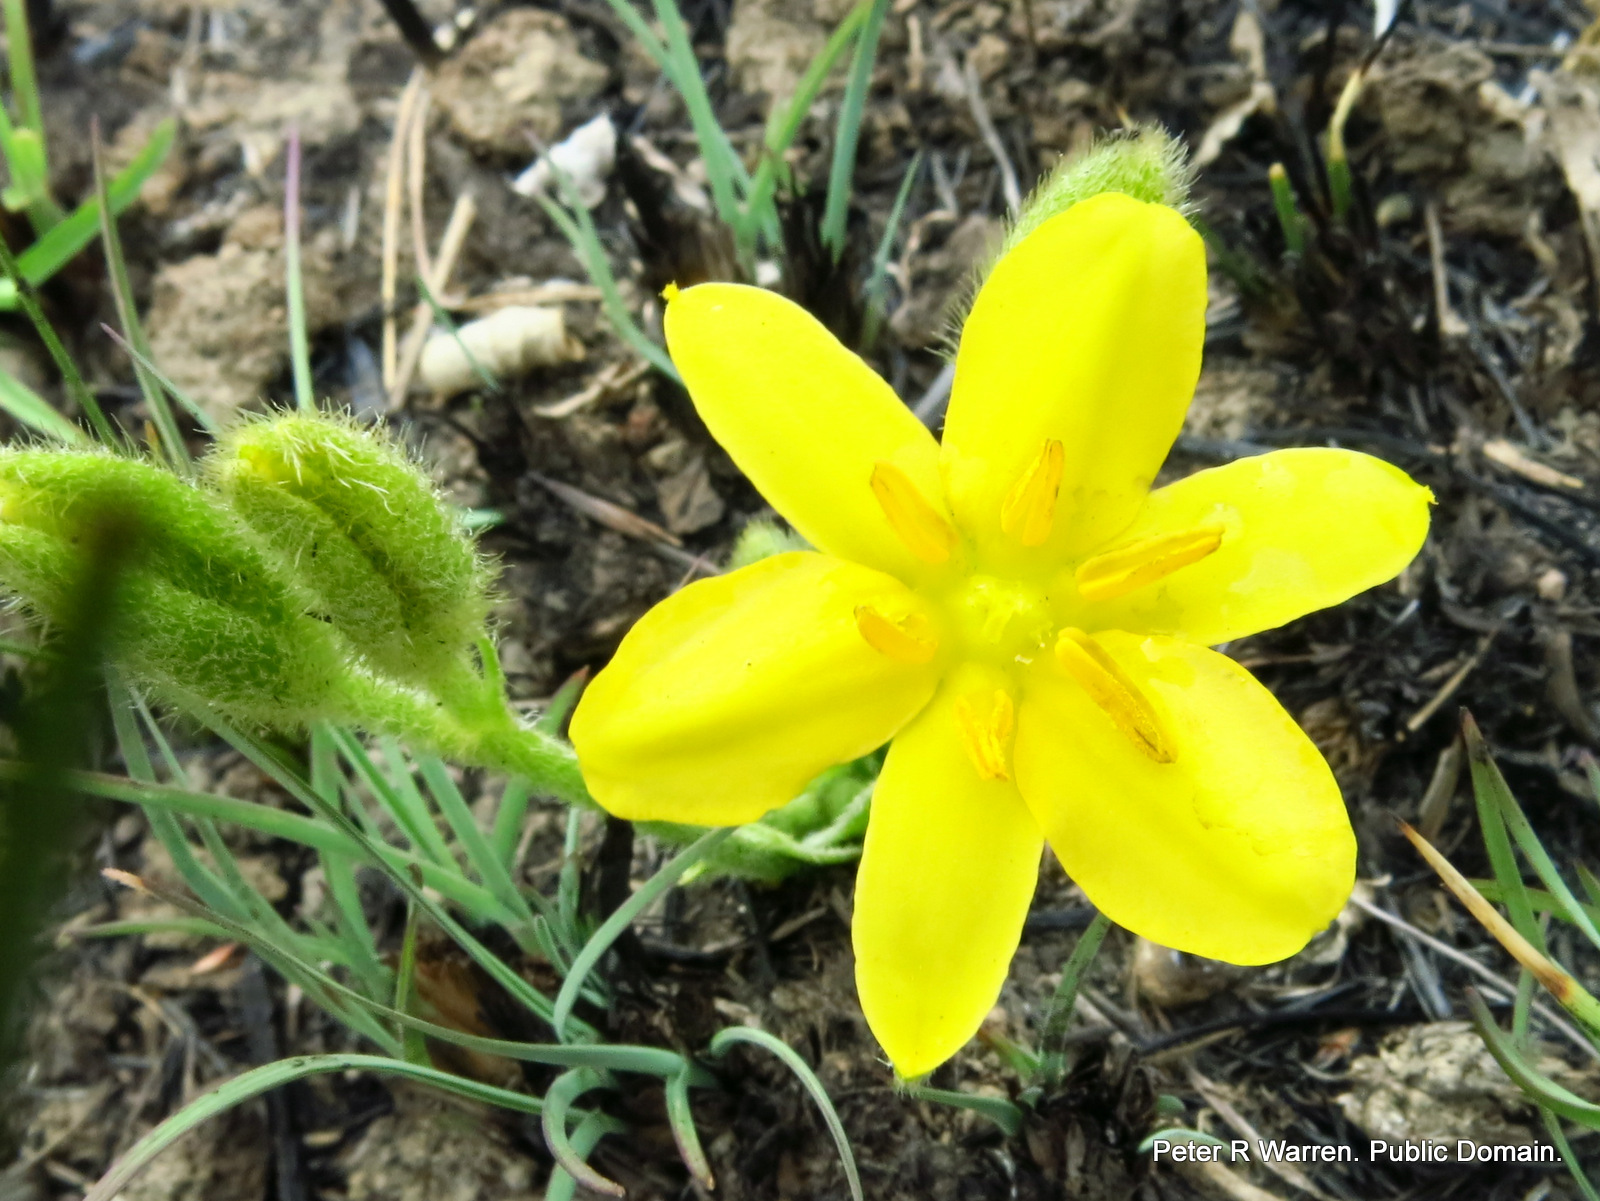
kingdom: Plantae
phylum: Tracheophyta
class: Liliopsida
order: Asparagales
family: Hypoxidaceae
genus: Hypoxis
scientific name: Hypoxis multiceps
